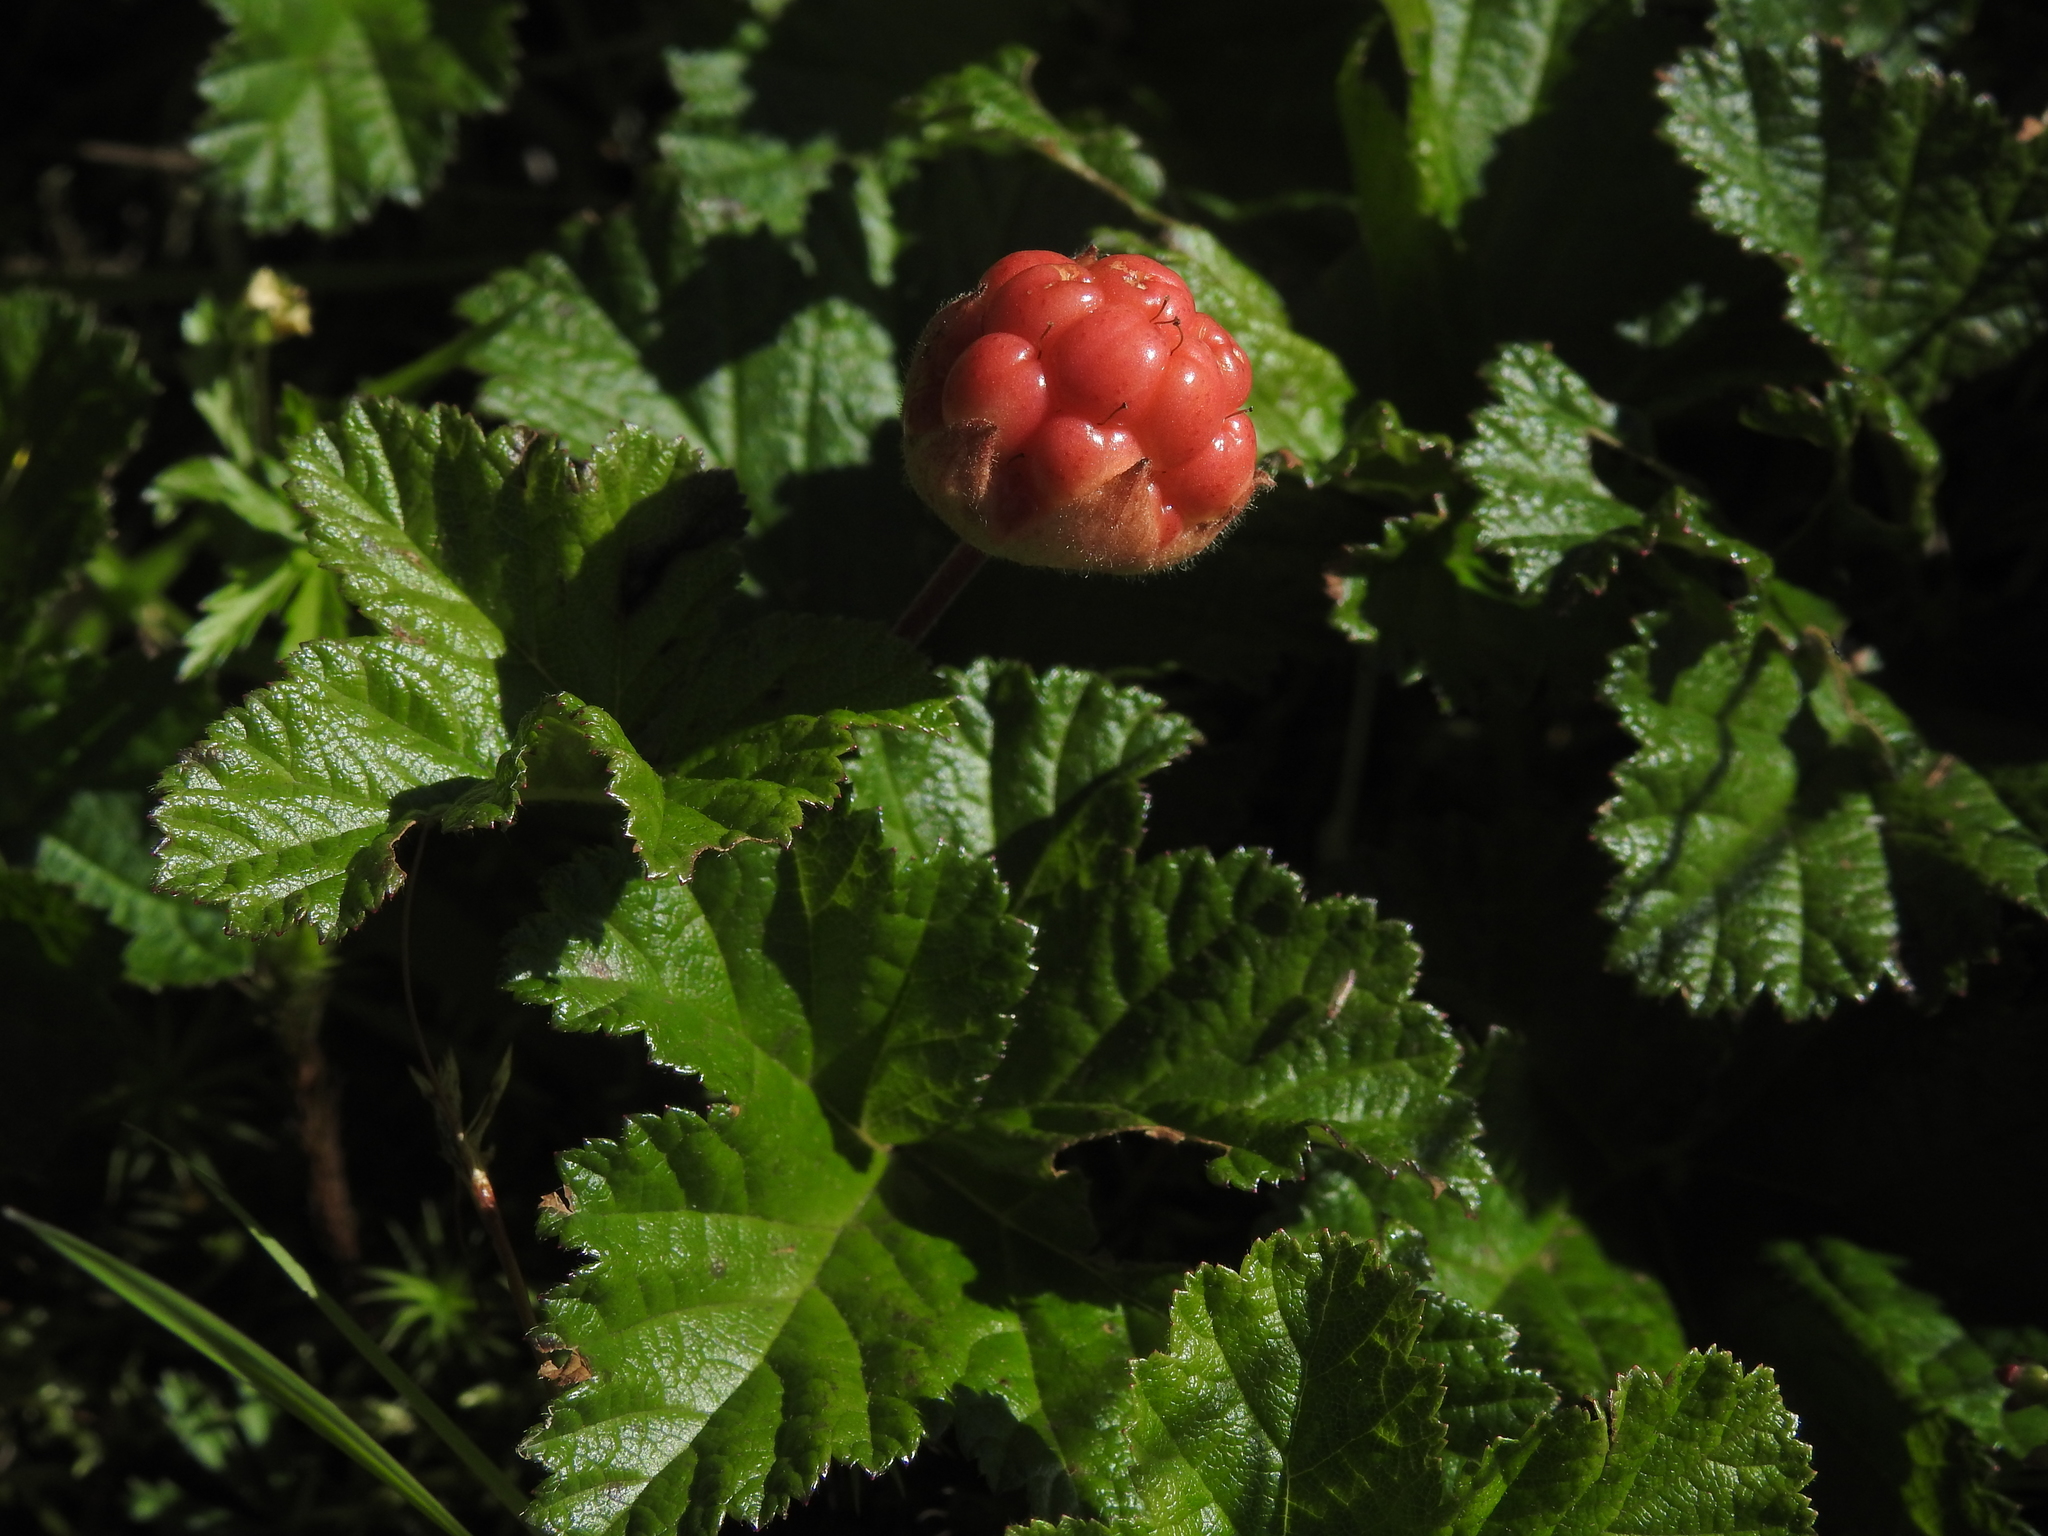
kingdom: Plantae
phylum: Tracheophyta
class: Magnoliopsida
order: Rosales
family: Rosaceae
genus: Rubus
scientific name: Rubus chamaemorus
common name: Cloudberry
